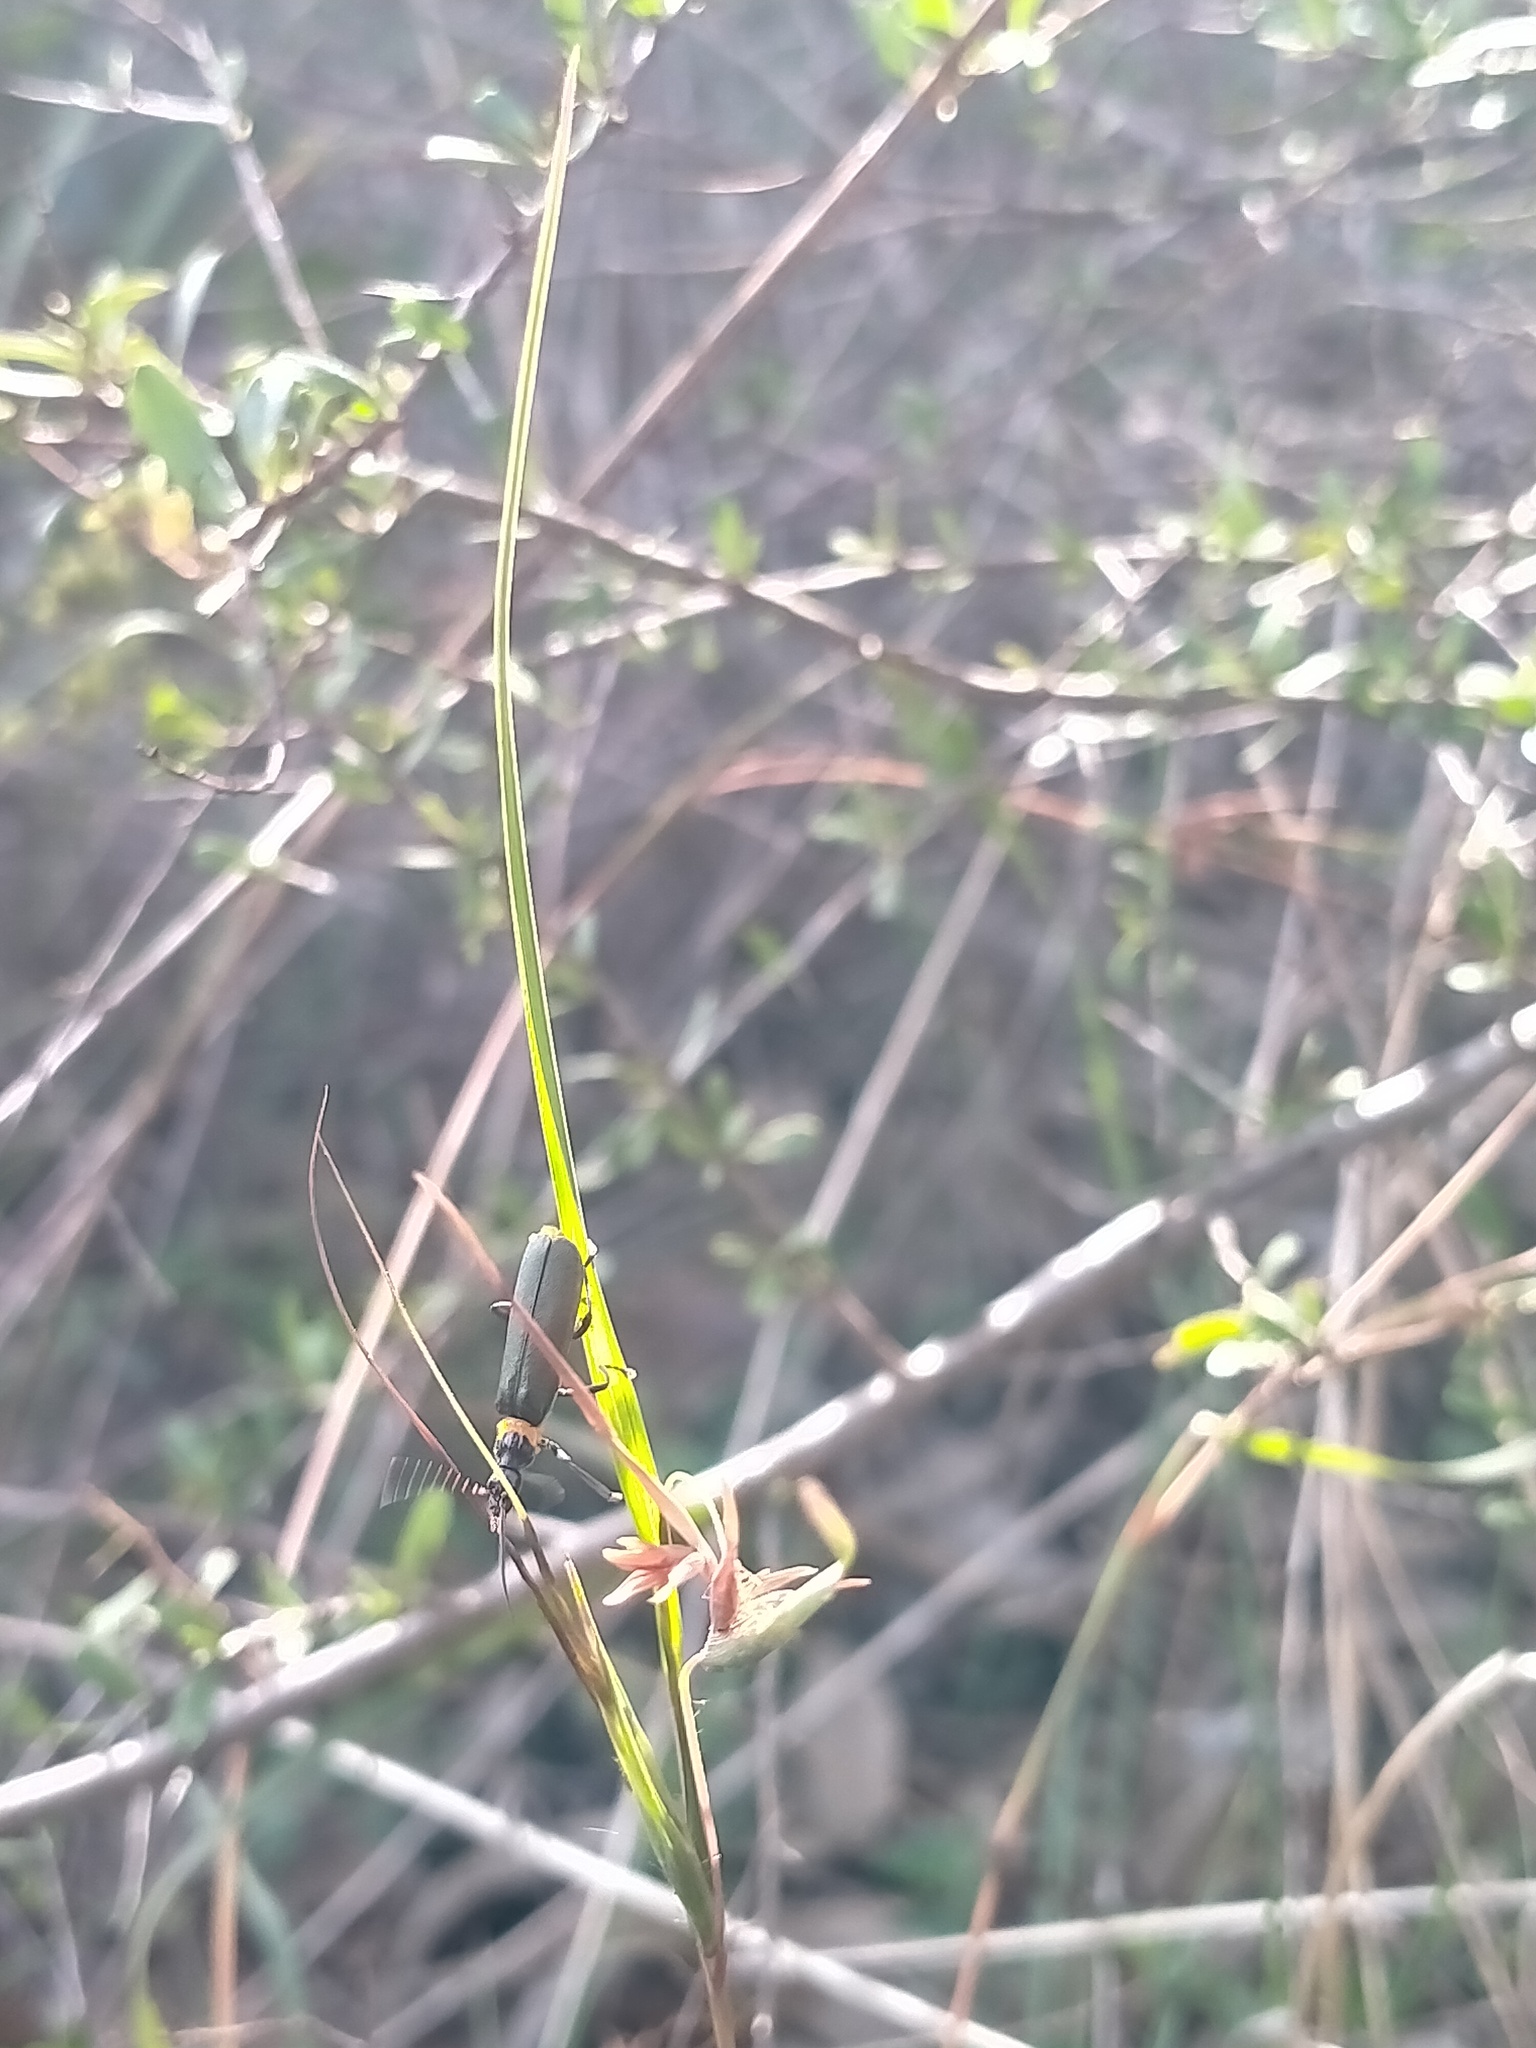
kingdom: Animalia
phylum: Arthropoda
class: Insecta
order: Coleoptera
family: Cantharidae
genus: Chauliognathus
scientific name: Chauliognathus
